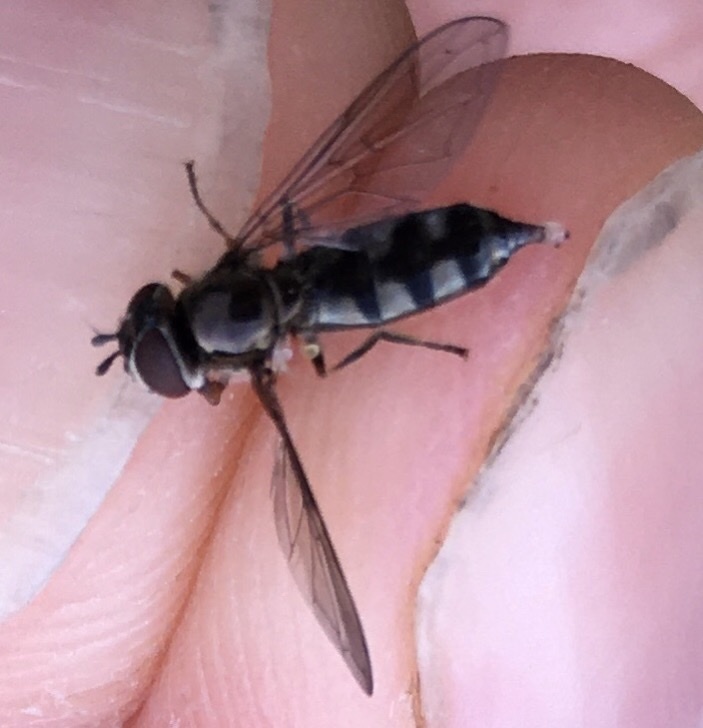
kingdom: Animalia
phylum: Arthropoda
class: Insecta
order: Diptera
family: Syrphidae
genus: Platycheirus
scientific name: Platycheirus albimanus
